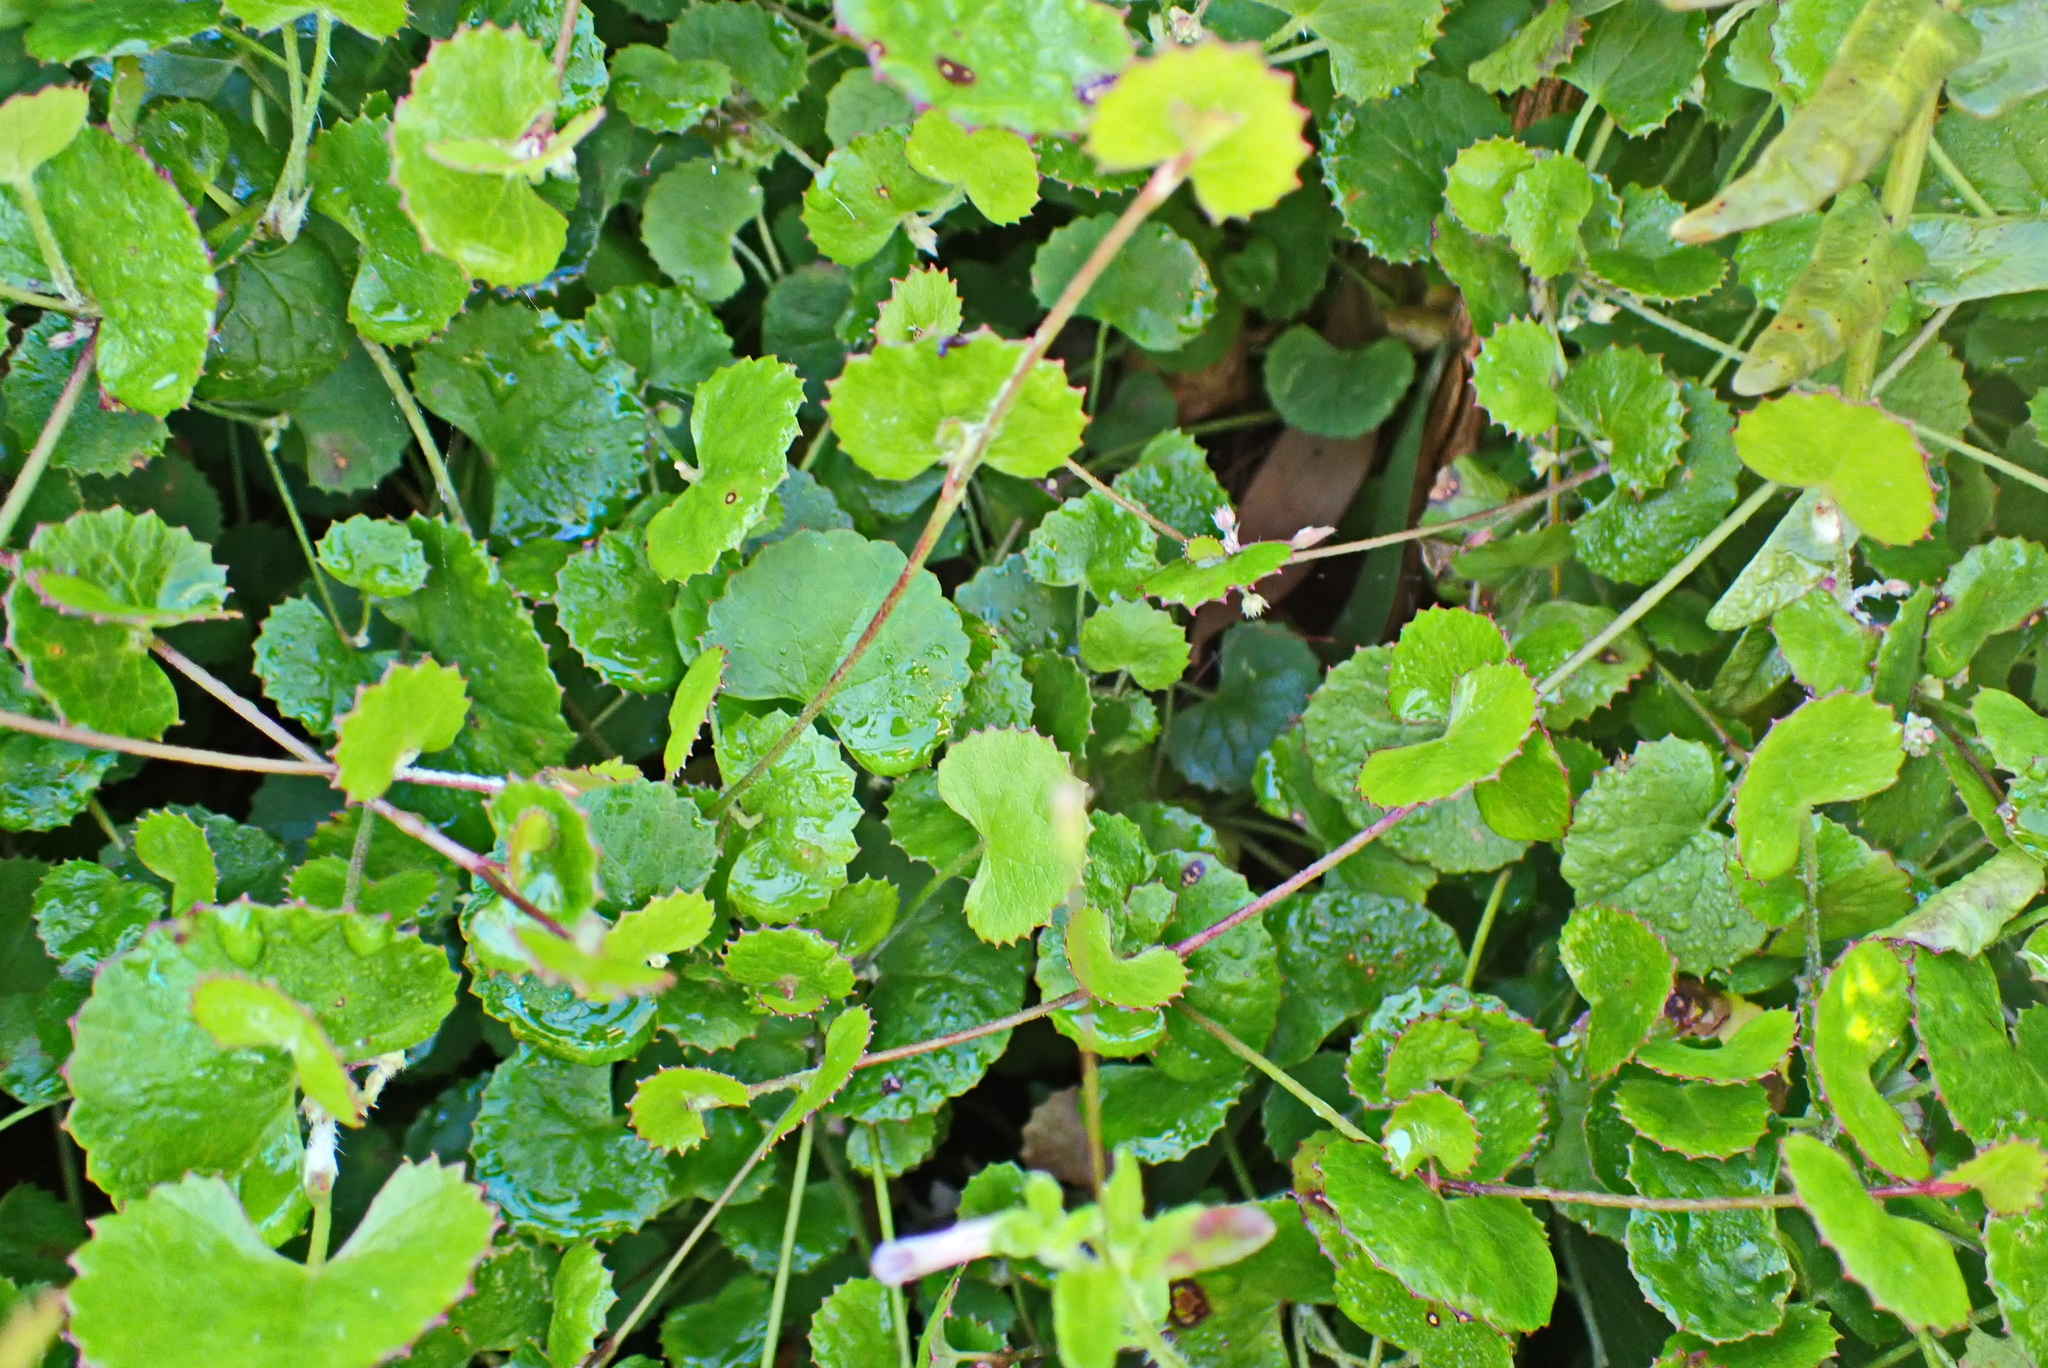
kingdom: Plantae
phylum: Tracheophyta
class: Magnoliopsida
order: Apiales
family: Apiaceae
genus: Centella
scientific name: Centella eriantha
